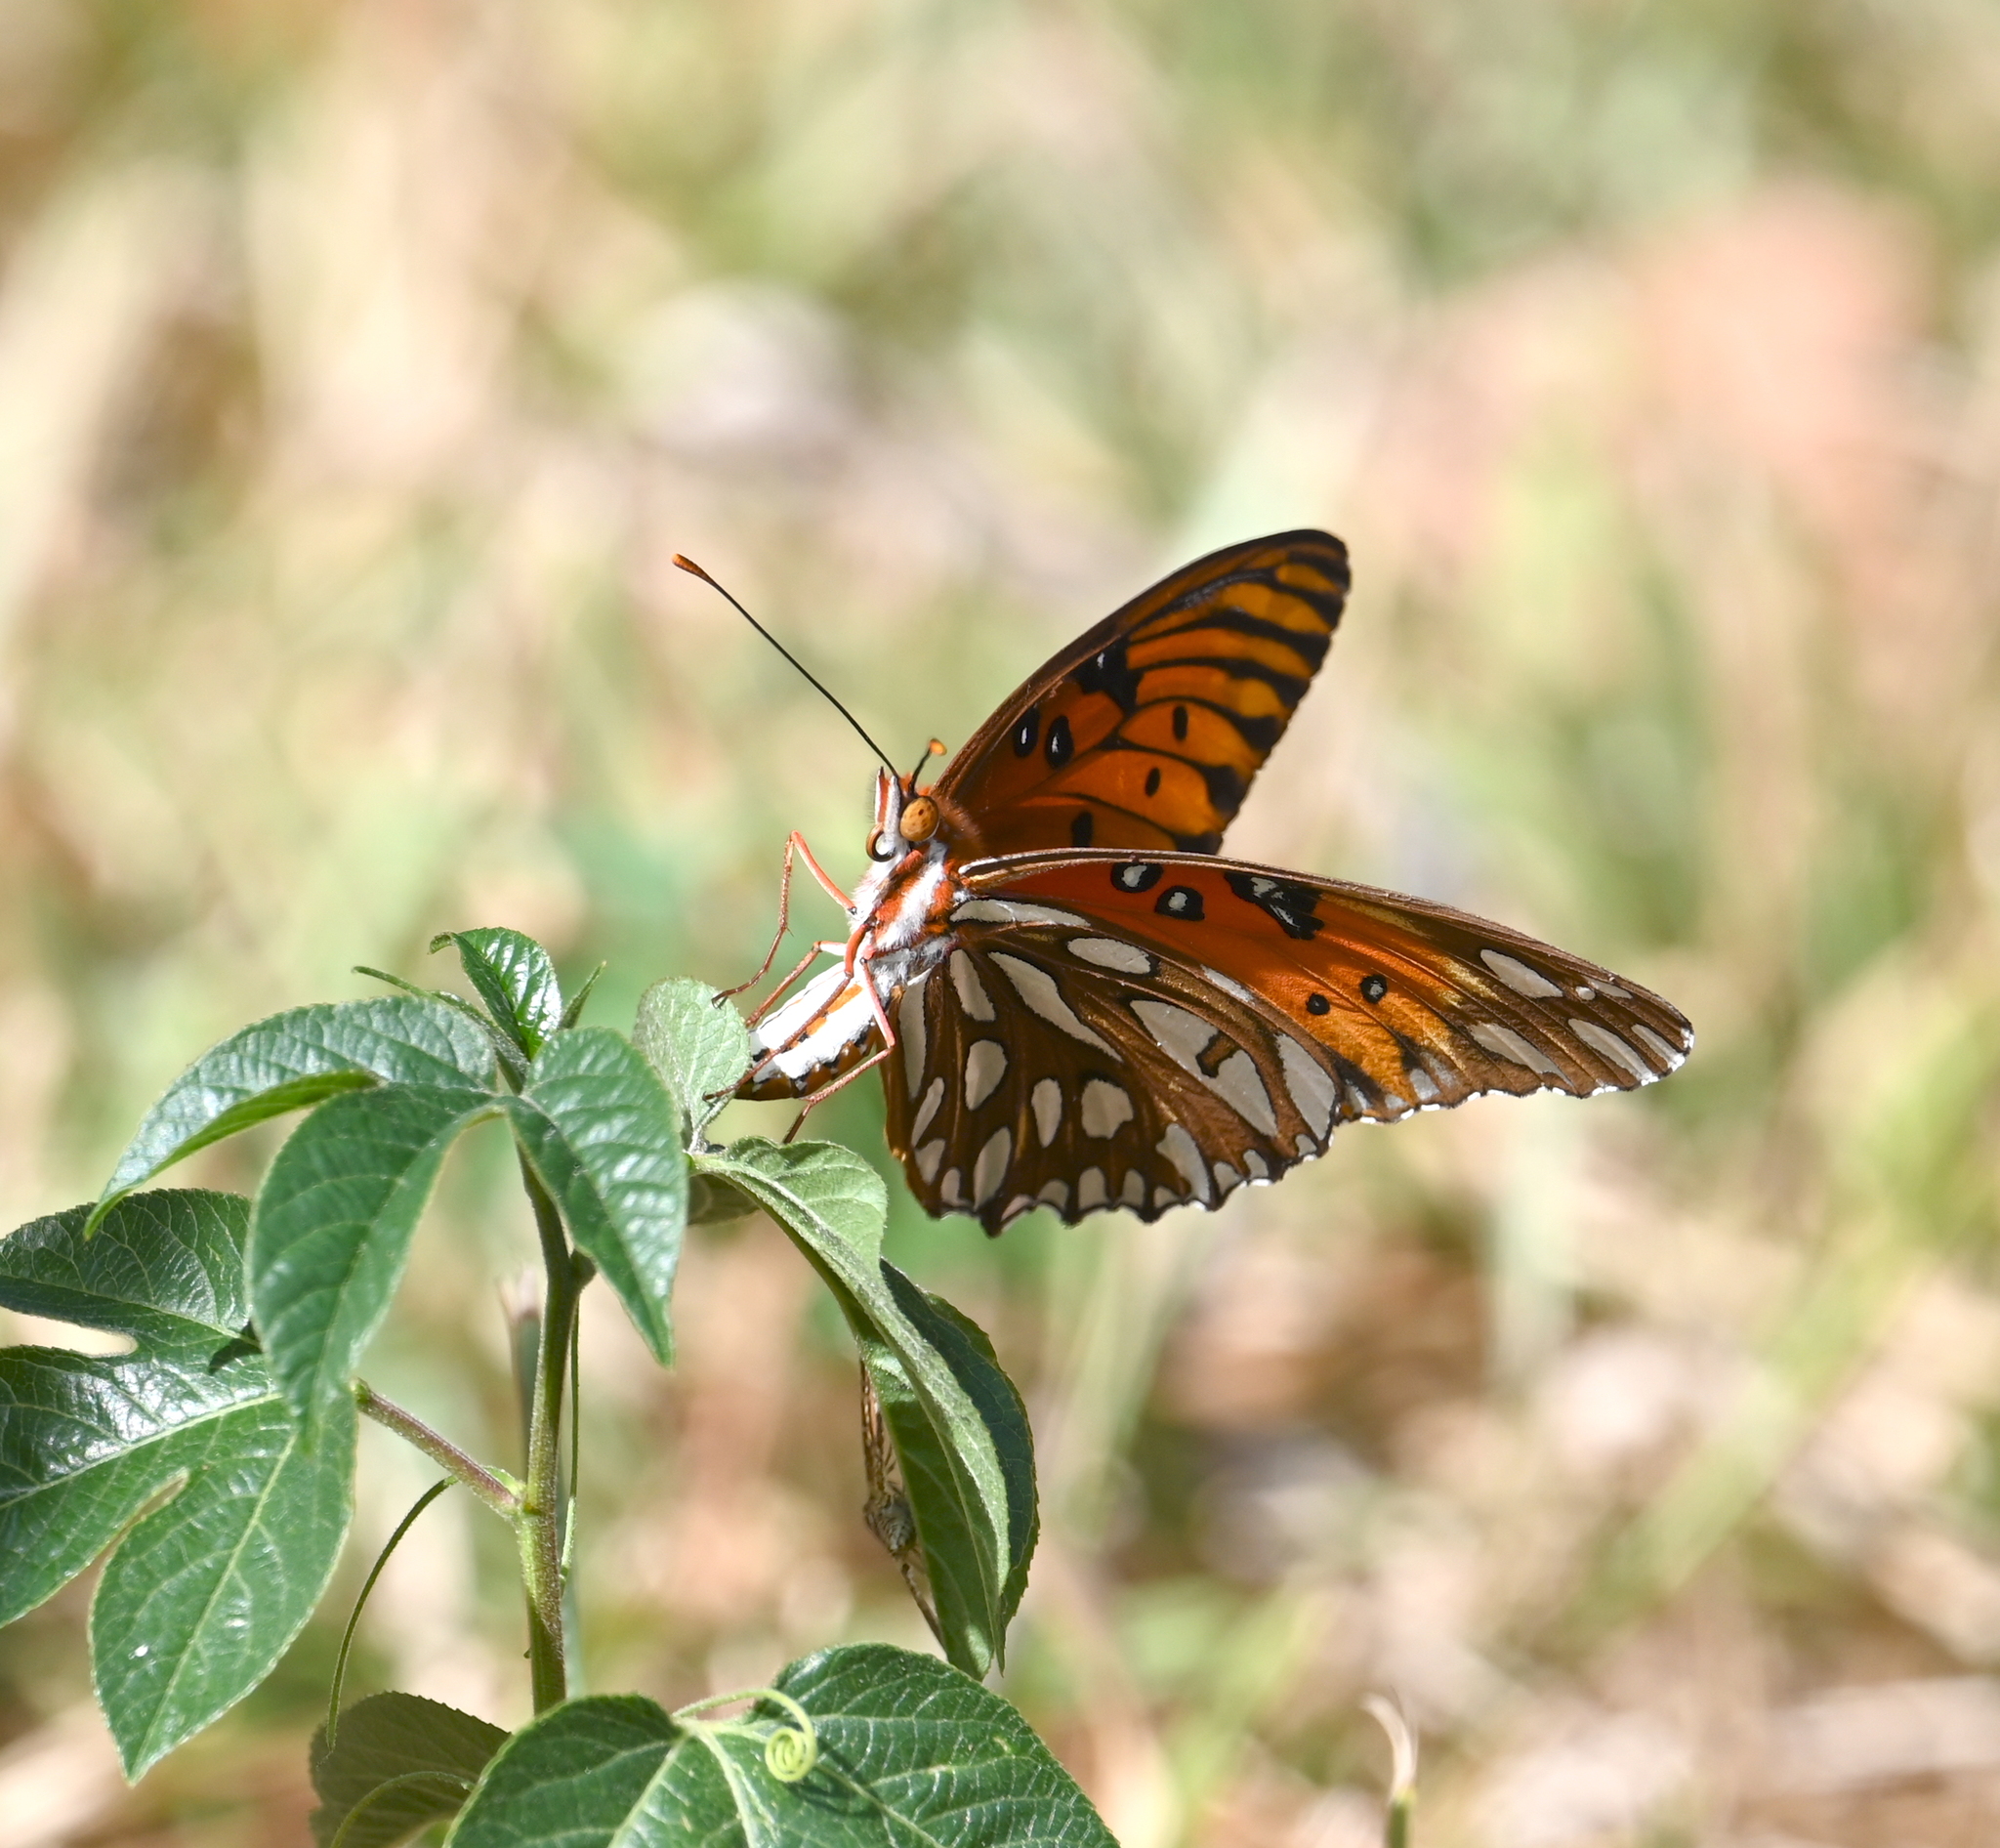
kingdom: Animalia
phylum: Arthropoda
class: Insecta
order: Lepidoptera
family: Nymphalidae
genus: Dione
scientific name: Dione vanillae
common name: Gulf fritillary
